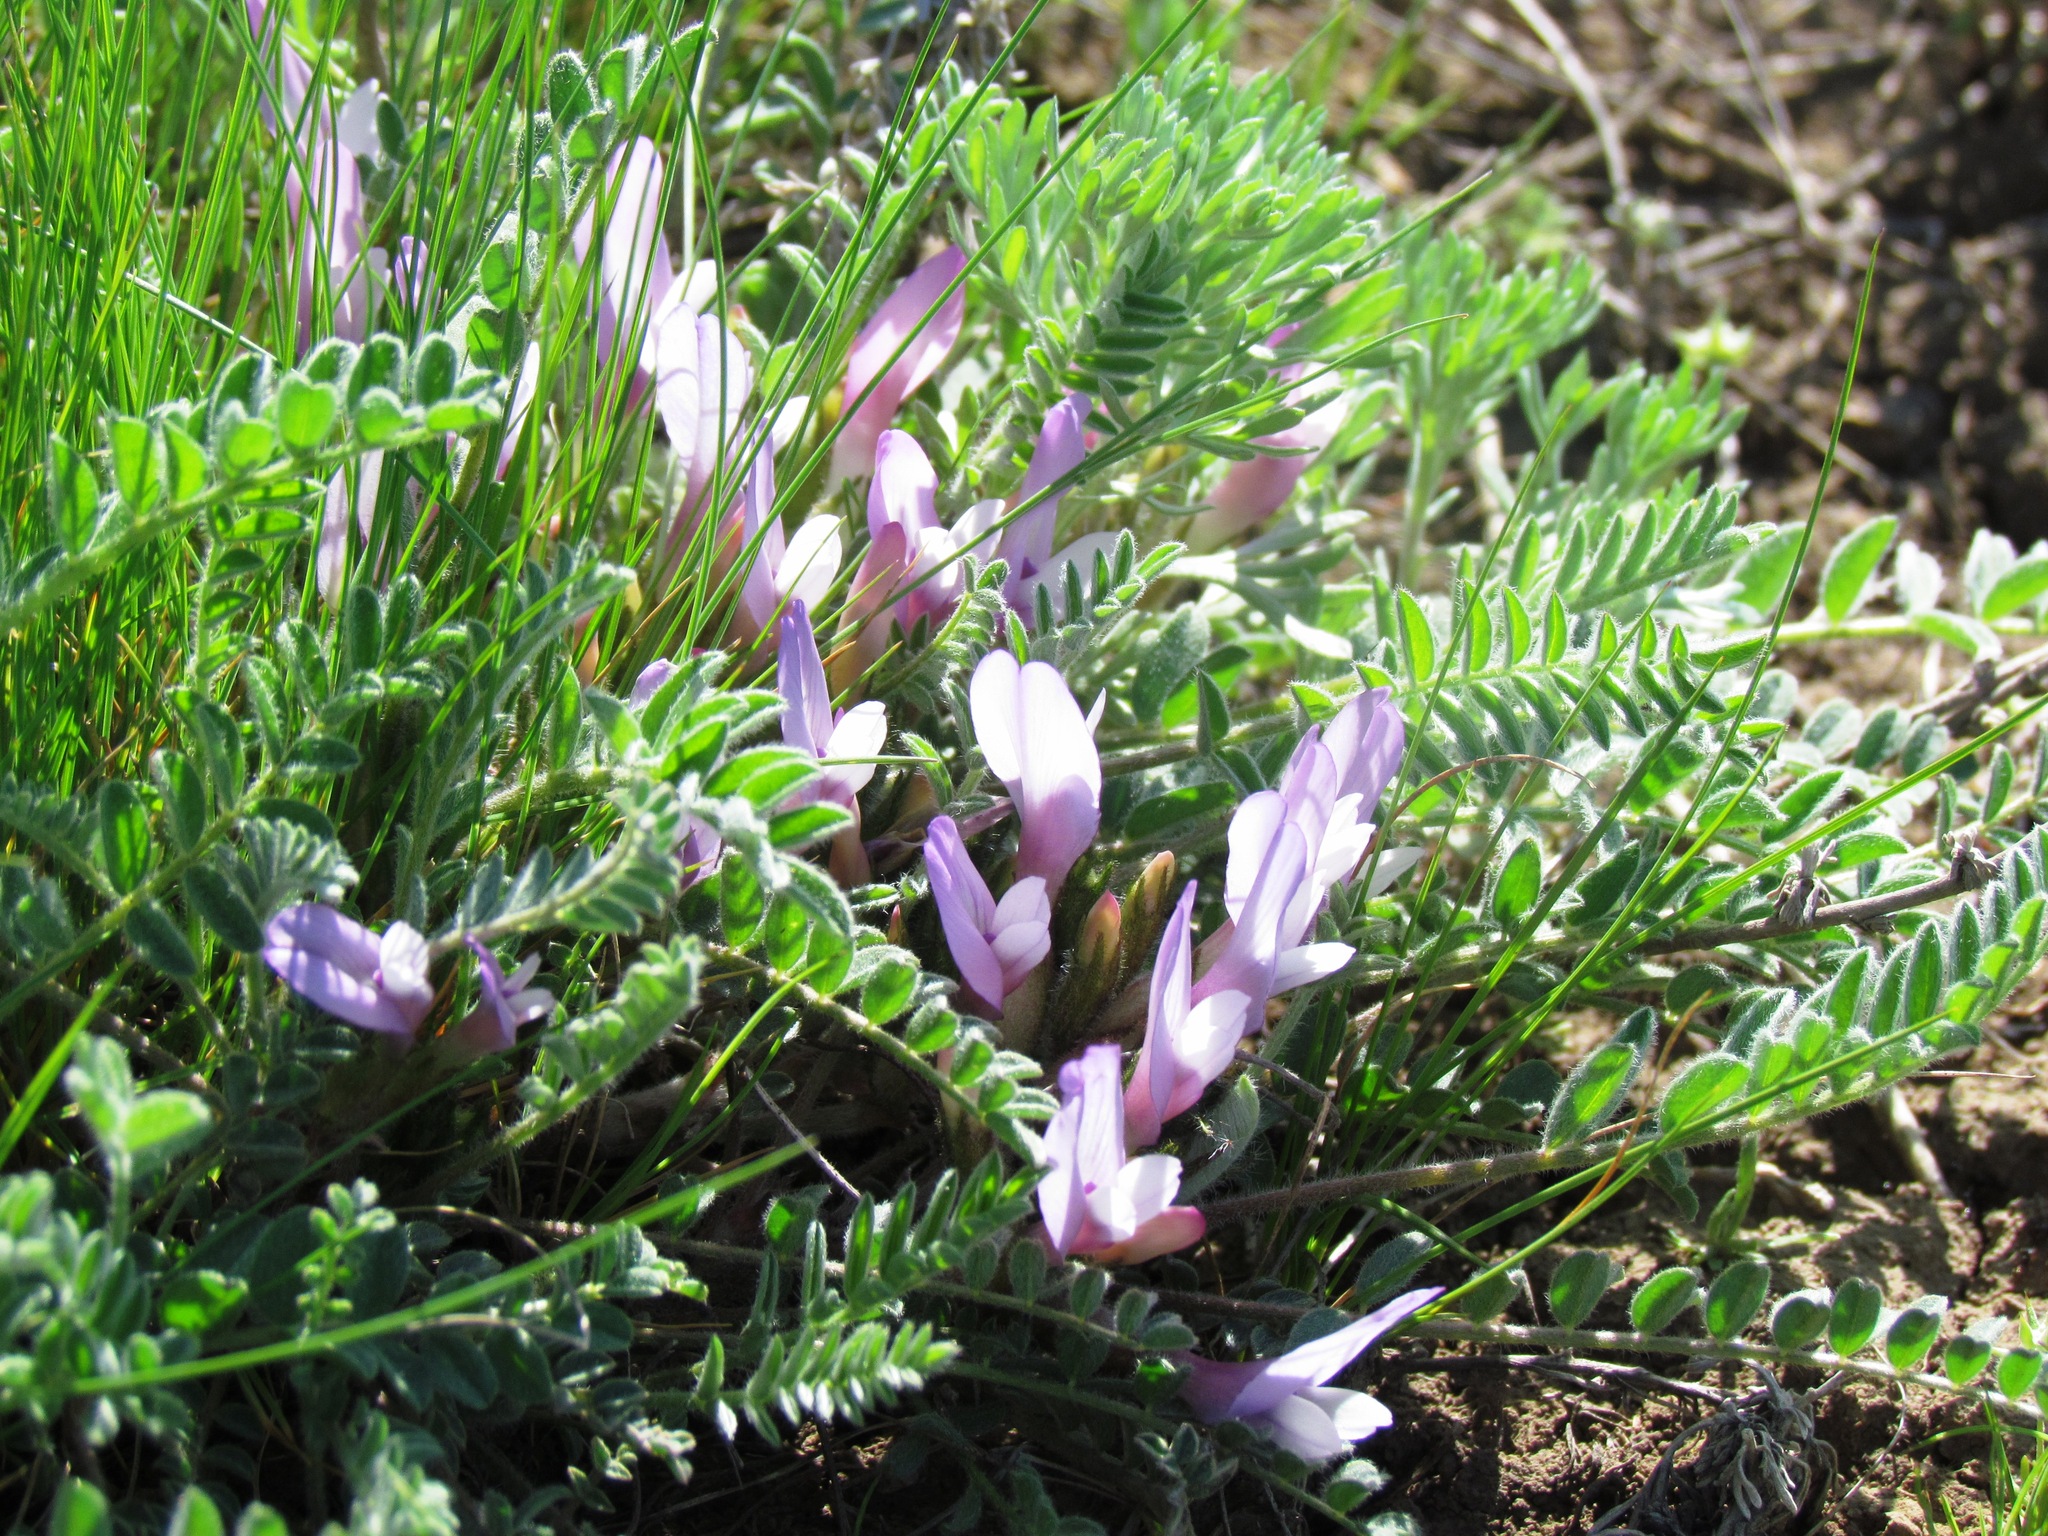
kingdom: Plantae
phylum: Tracheophyta
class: Magnoliopsida
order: Fabales
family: Fabaceae
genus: Astragalus
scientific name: Astragalus testiculatus
